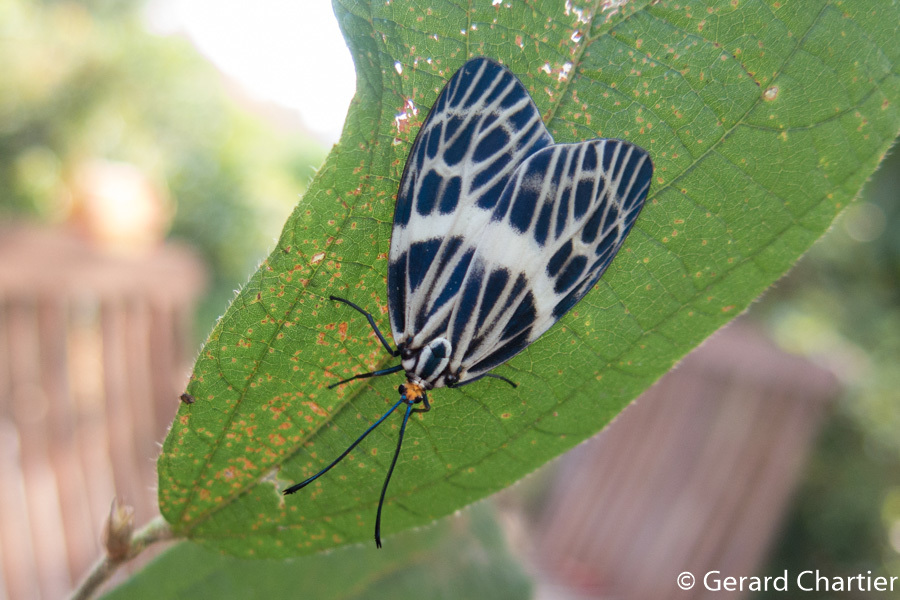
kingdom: Animalia
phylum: Arthropoda
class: Insecta
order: Lepidoptera
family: Zygaenidae
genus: Prosopandrophila
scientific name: Prosopandrophila distincta
